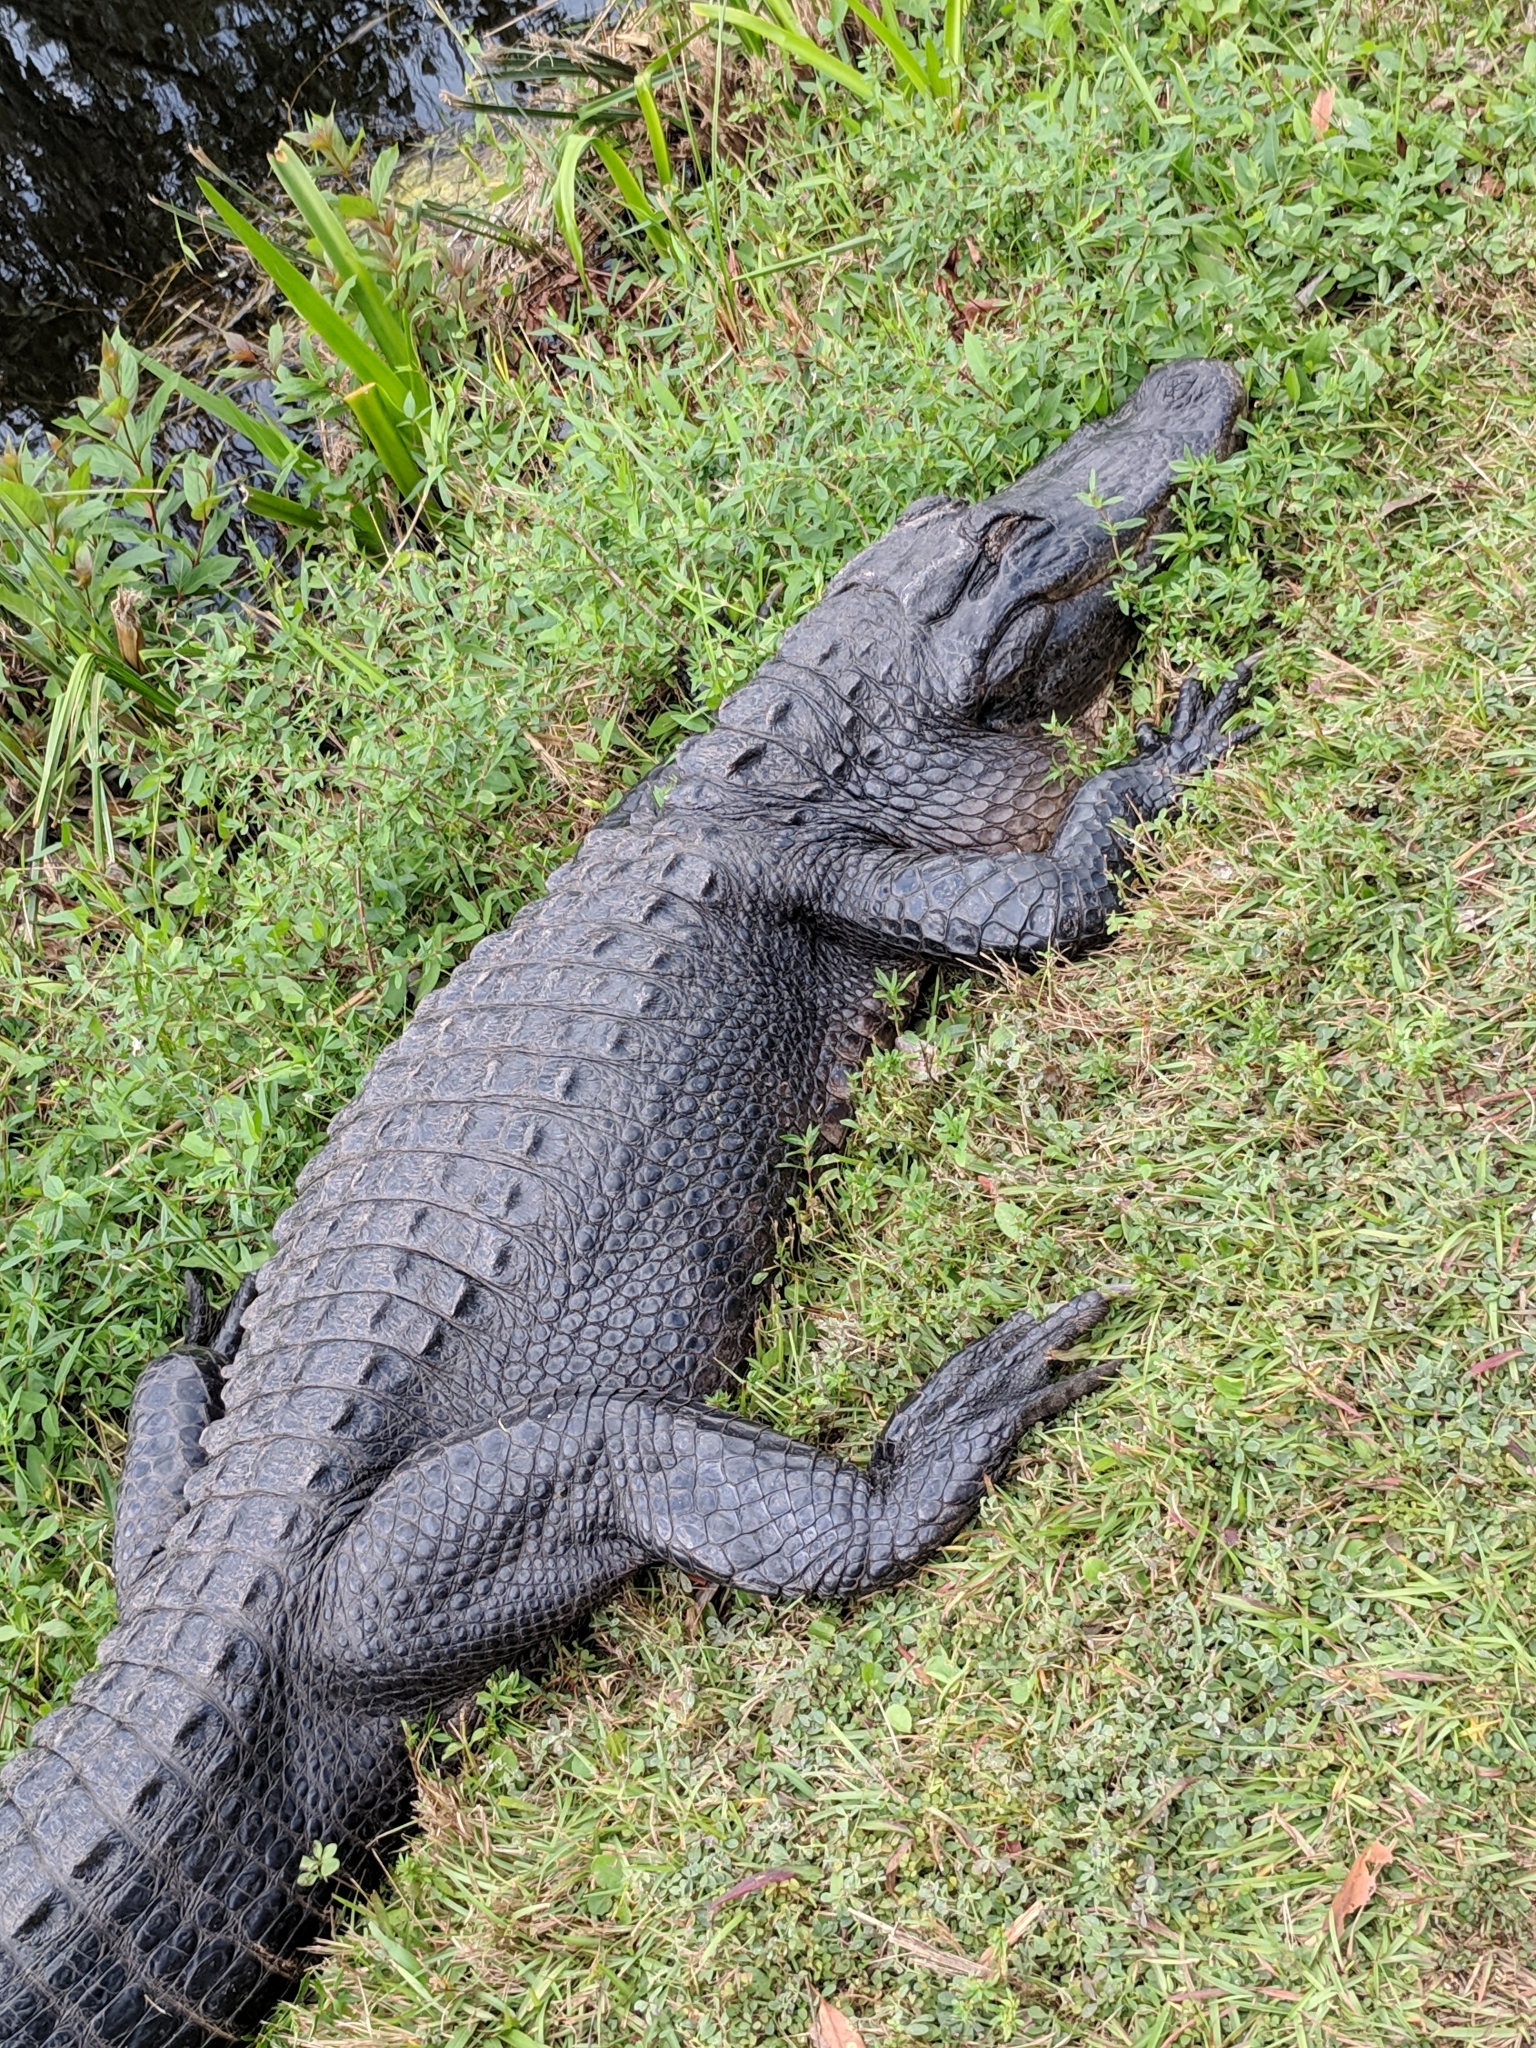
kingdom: Animalia
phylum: Chordata
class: Crocodylia
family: Alligatoridae
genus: Alligator
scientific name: Alligator mississippiensis
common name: American alligator
